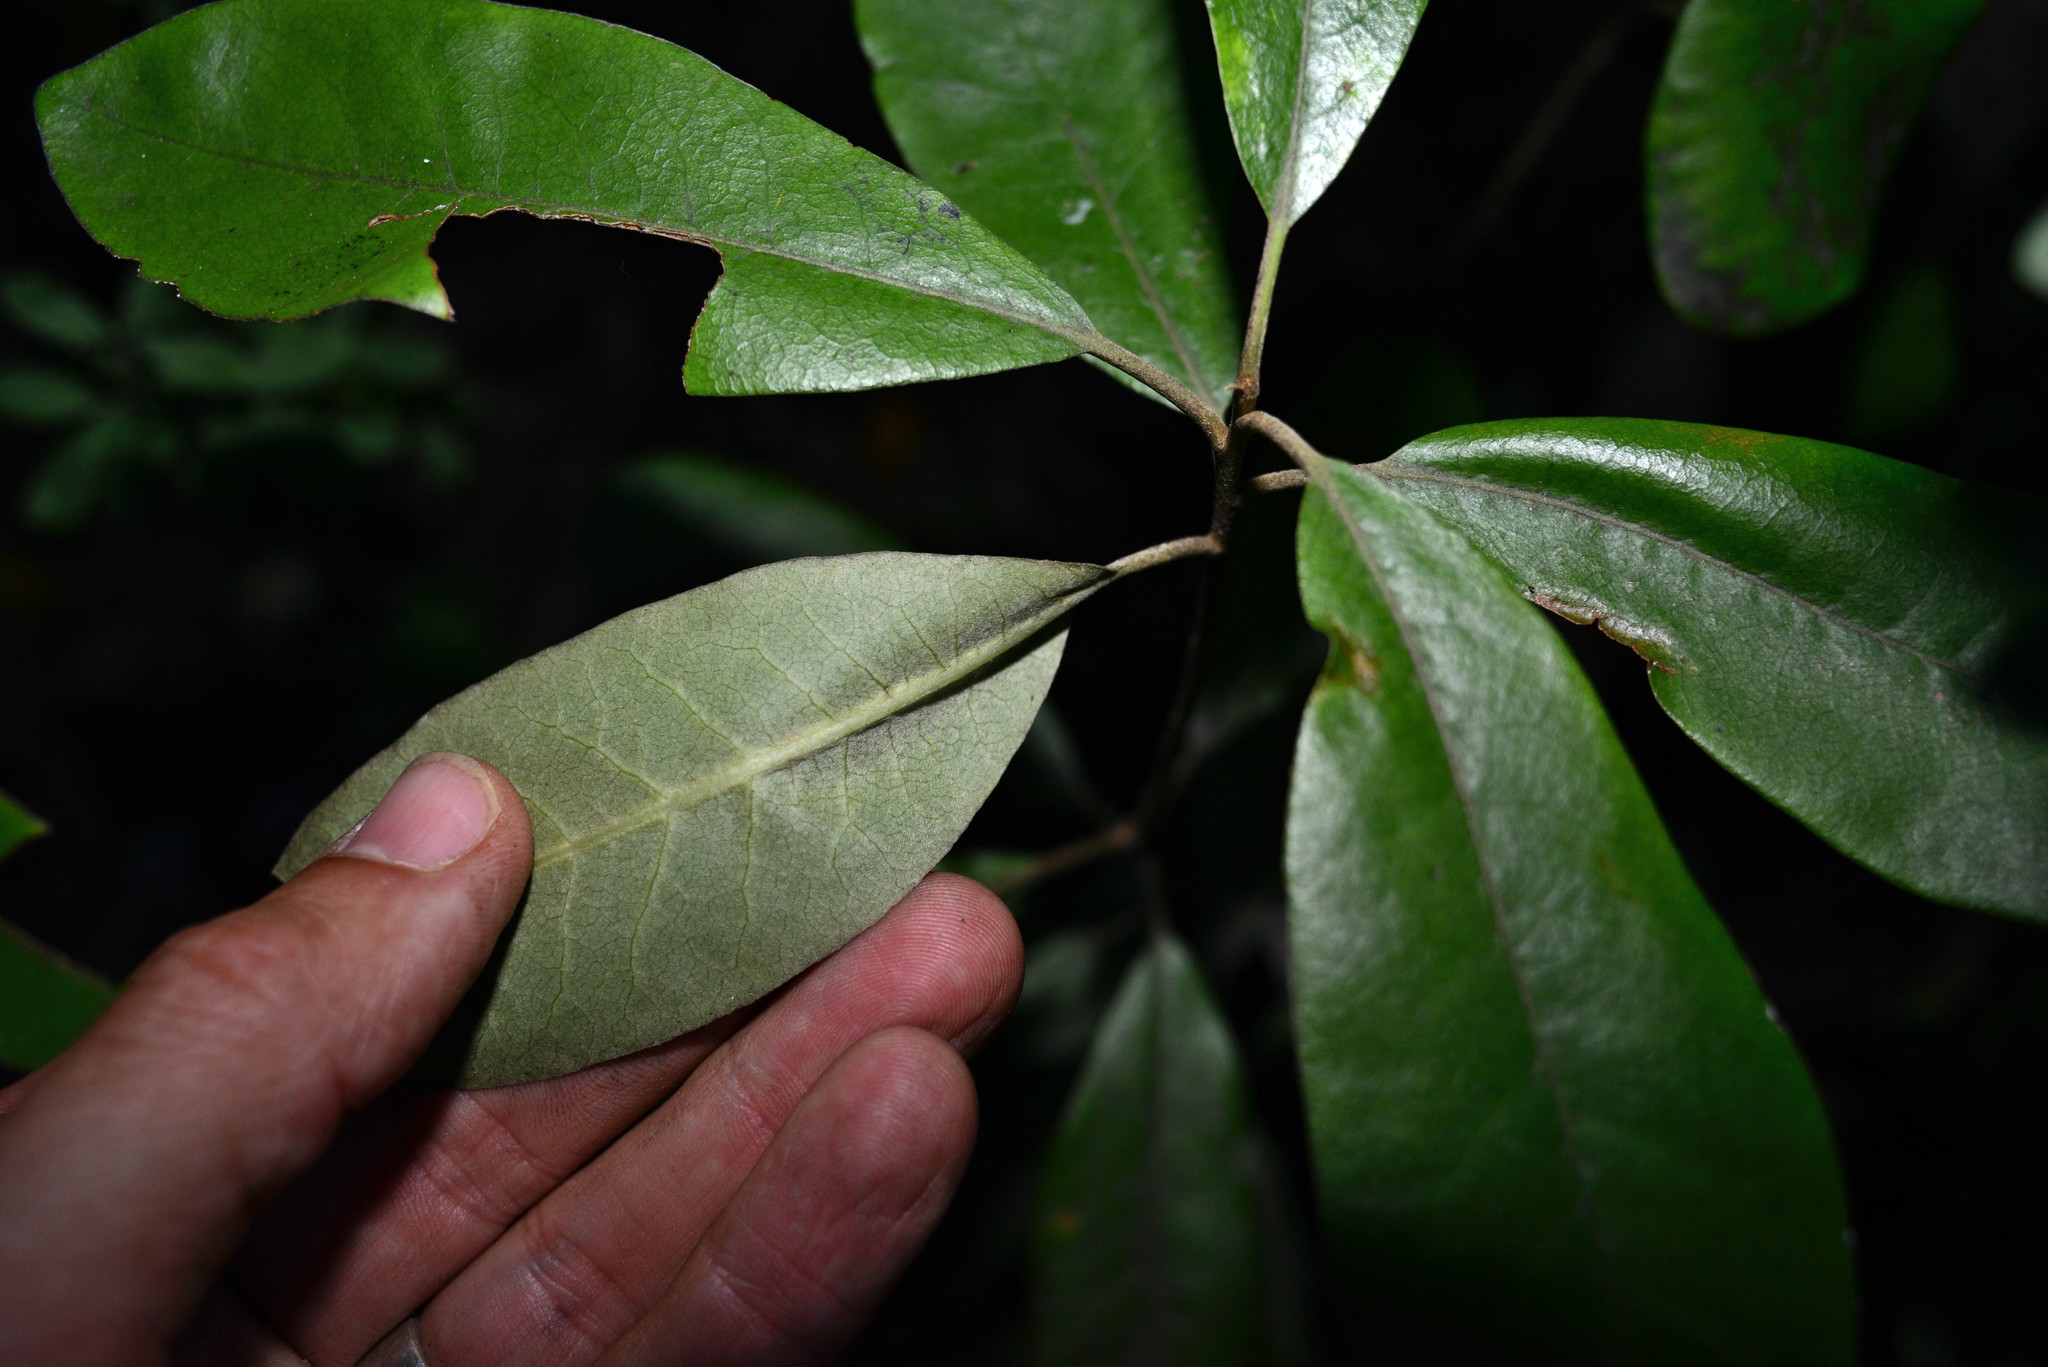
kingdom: Plantae
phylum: Tracheophyta
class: Magnoliopsida
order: Apiales
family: Pittosporaceae
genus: Pittosporum
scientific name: Pittosporum ralphii
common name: Ralph's desertwillow
